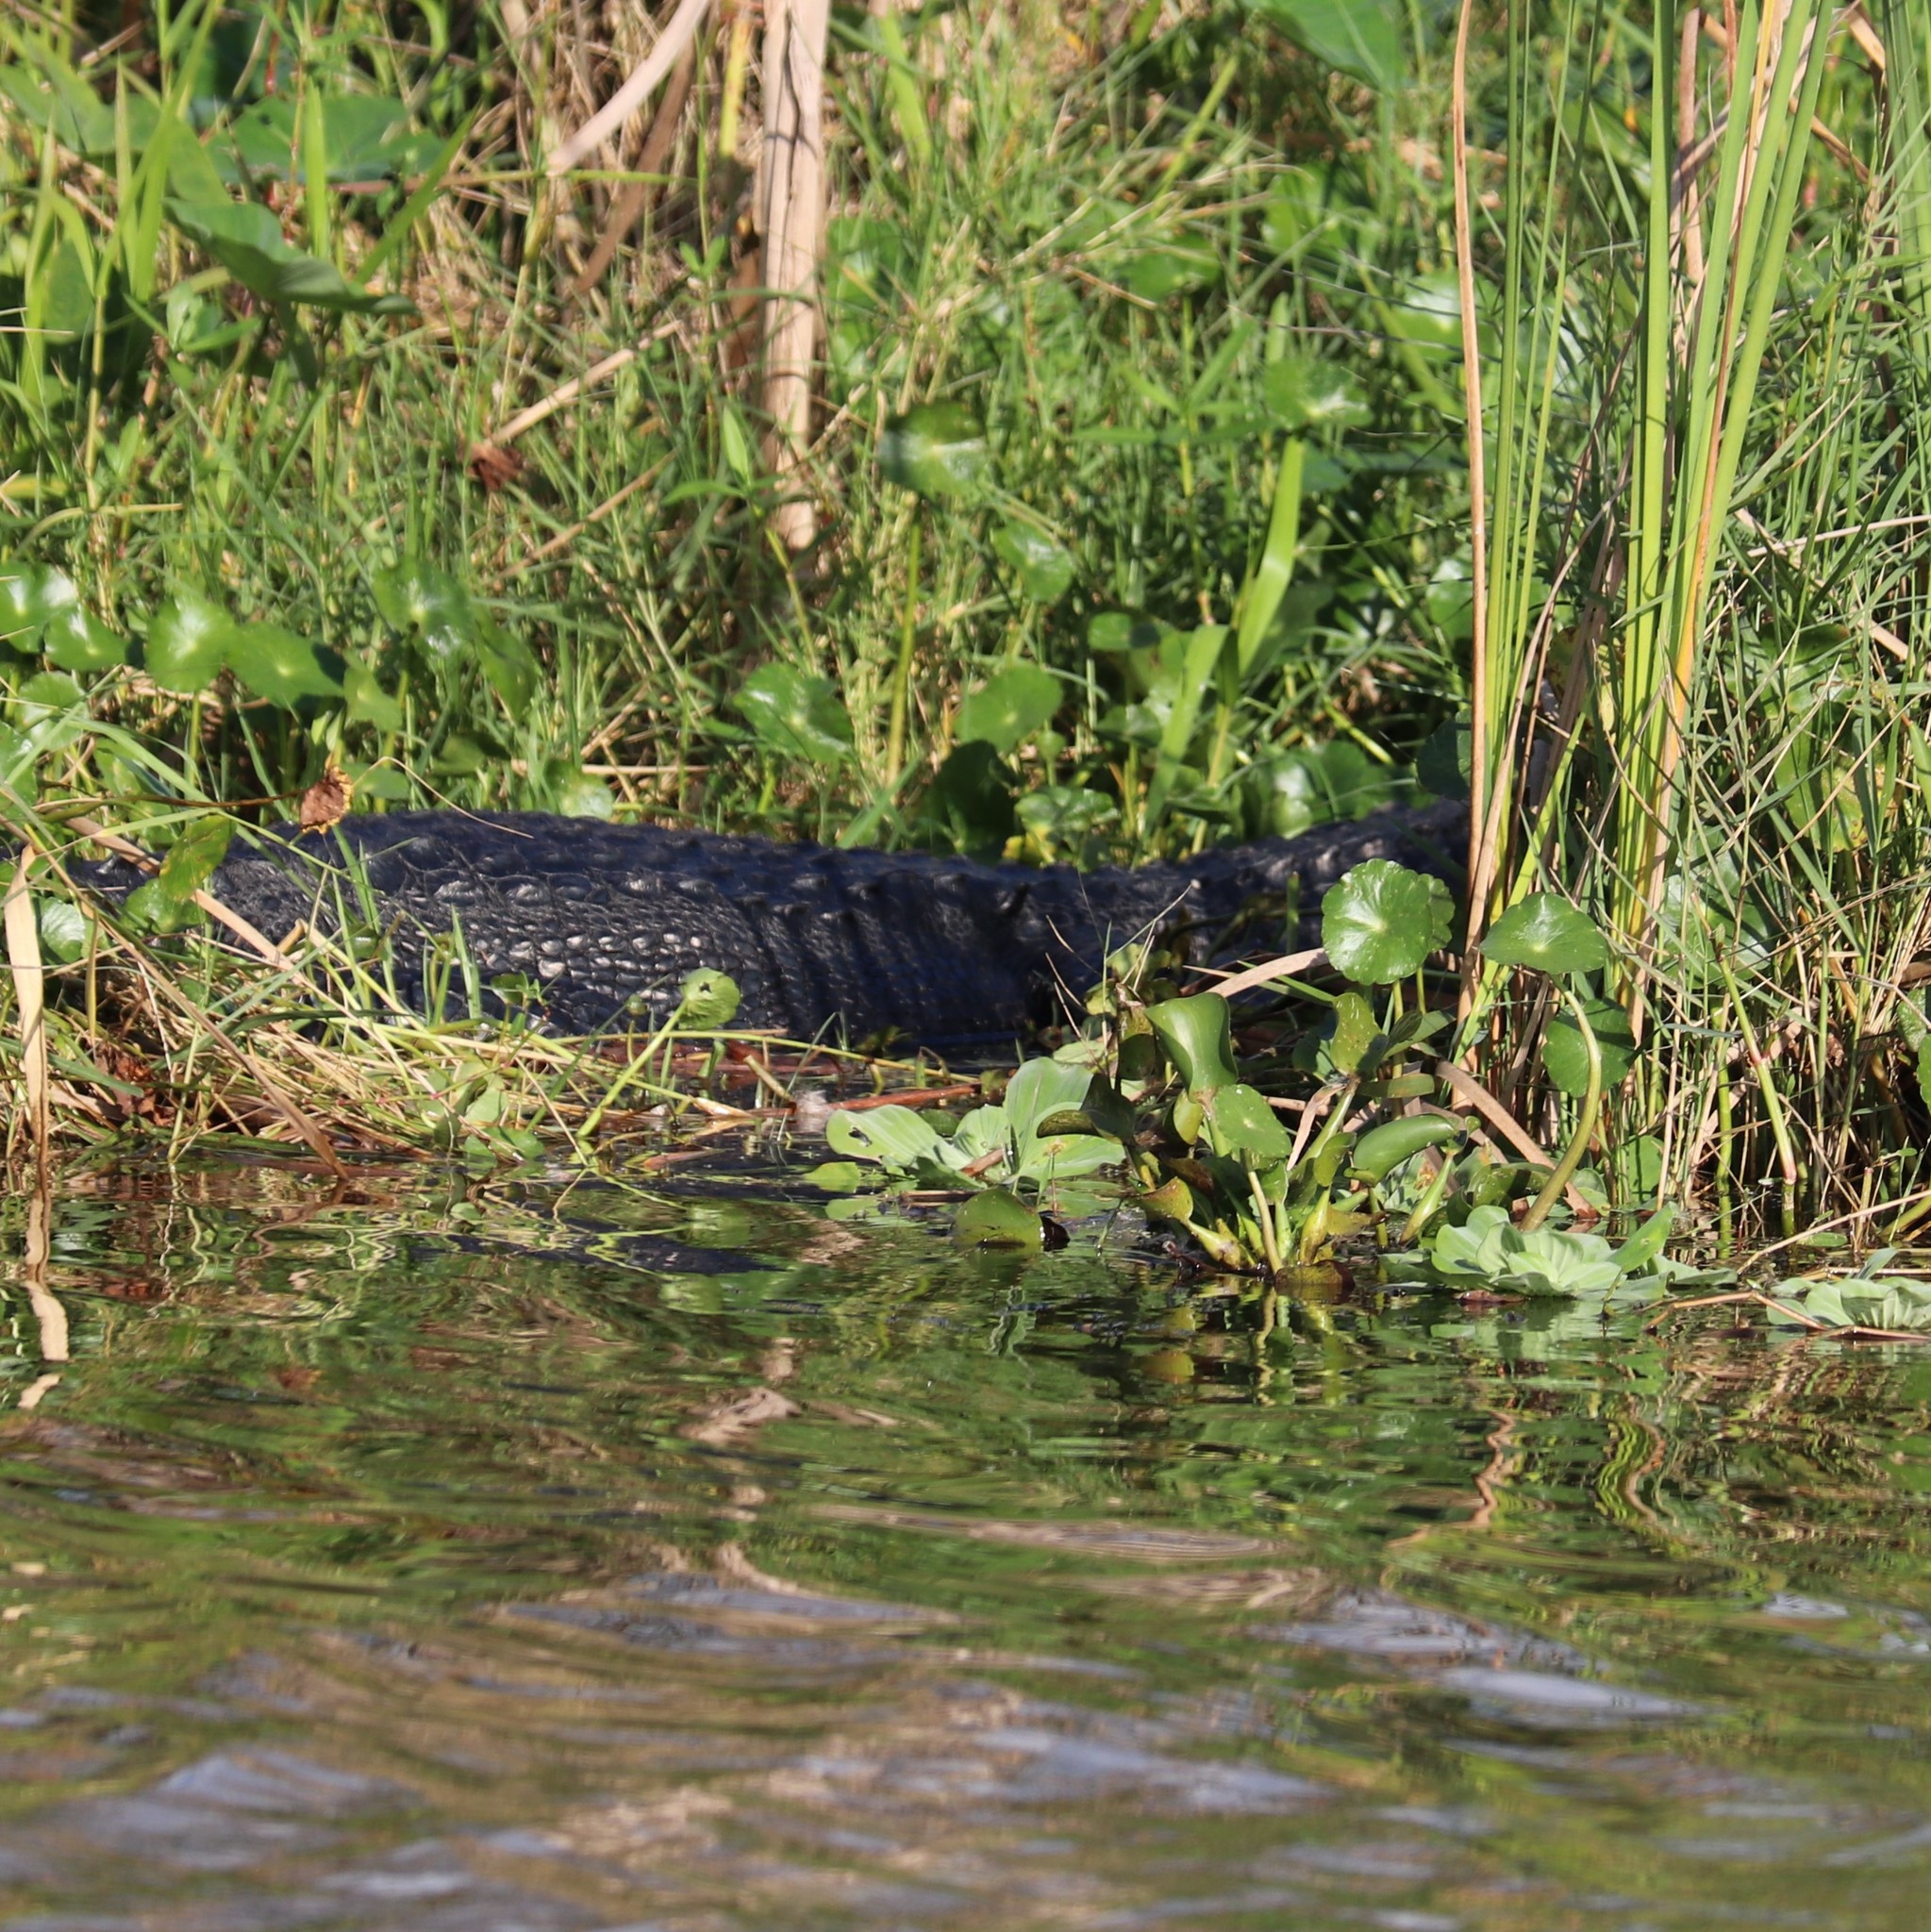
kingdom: Animalia
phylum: Chordata
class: Crocodylia
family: Alligatoridae
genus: Alligator
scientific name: Alligator mississippiensis
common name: American alligator
